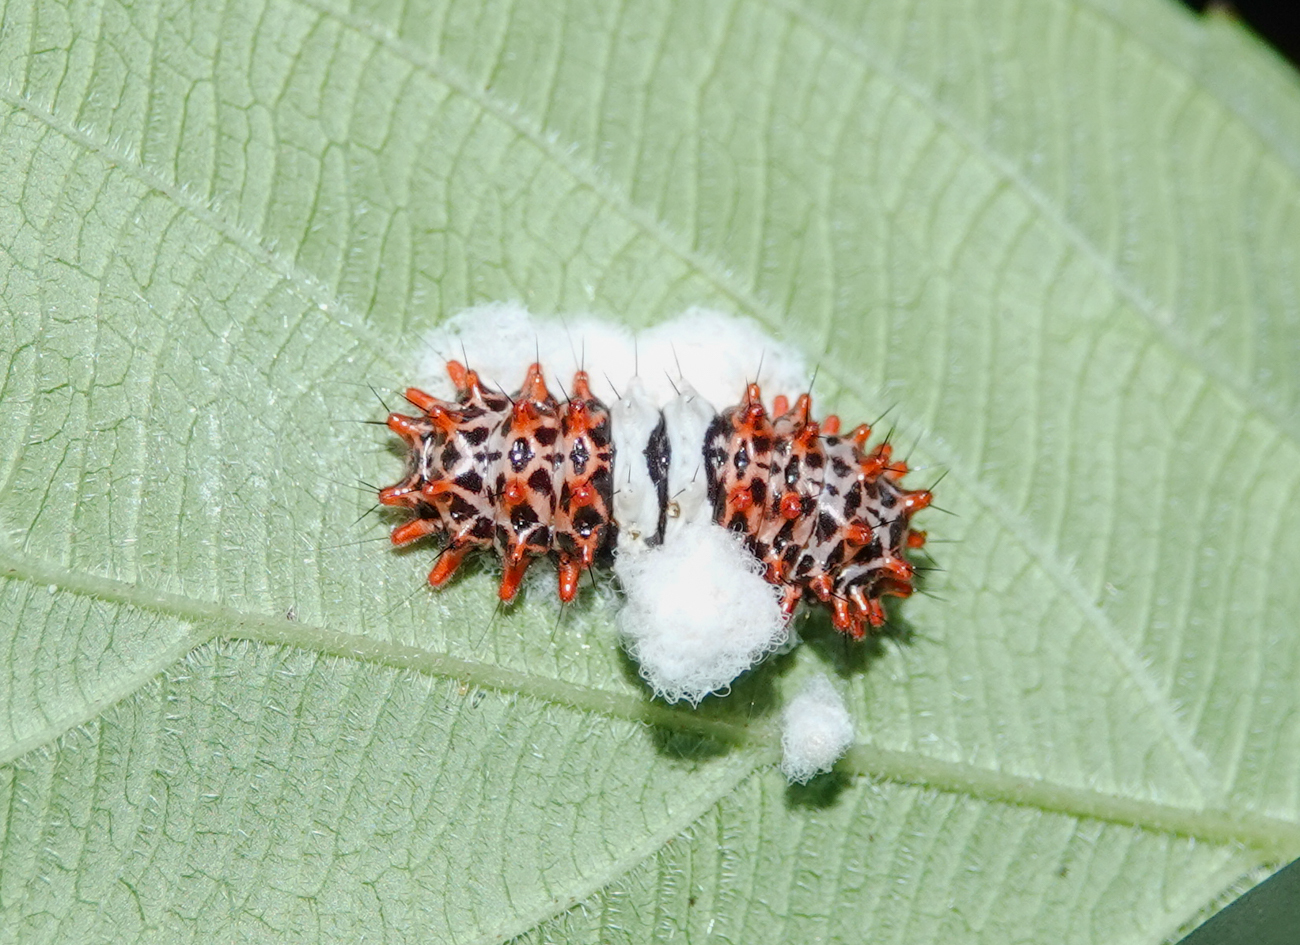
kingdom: Animalia
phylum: Arthropoda
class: Insecta
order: Lepidoptera
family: Zygaenidae
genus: Cyclosia
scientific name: Cyclosia midama
